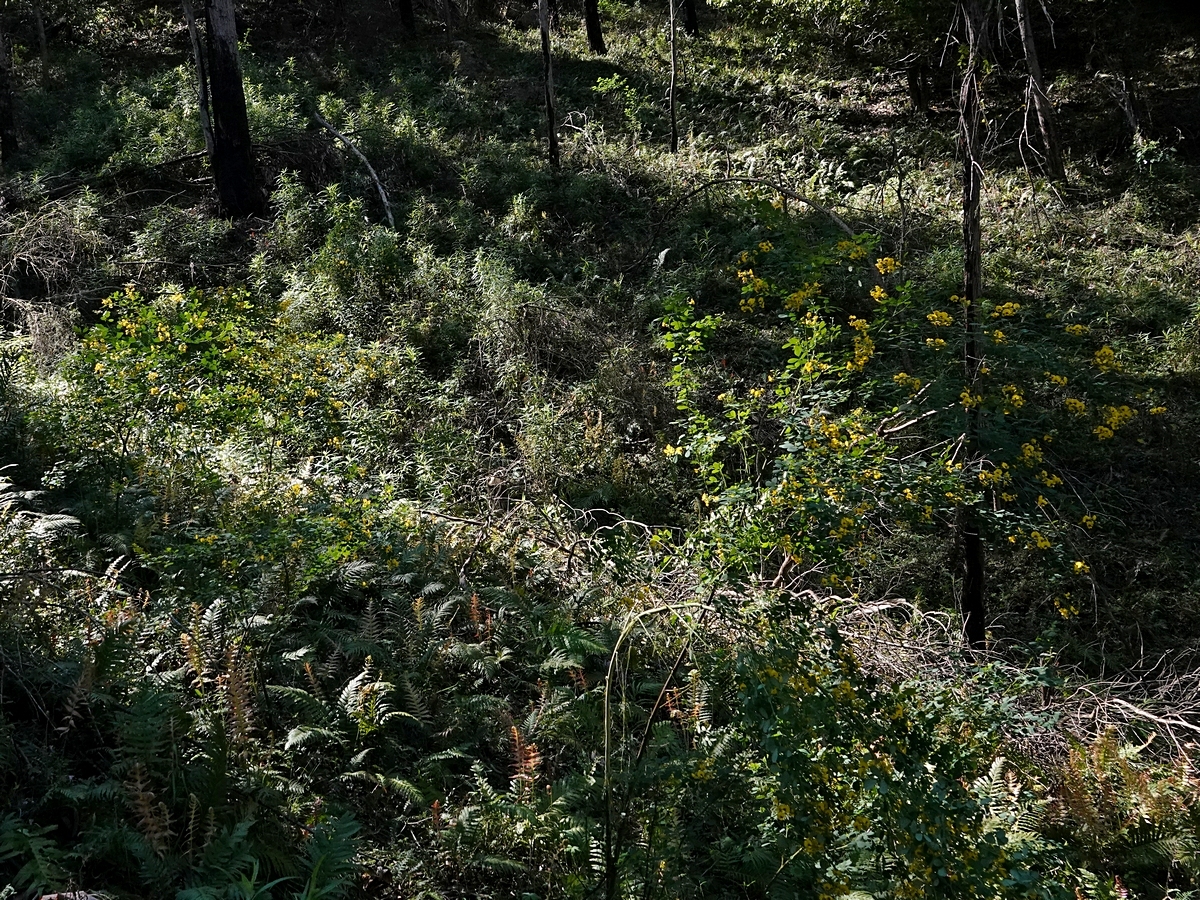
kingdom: Plantae
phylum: Tracheophyta
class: Magnoliopsida
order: Fabales
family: Fabaceae
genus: Goodia
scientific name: Goodia lotifolia
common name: Cloverleaf-poison
